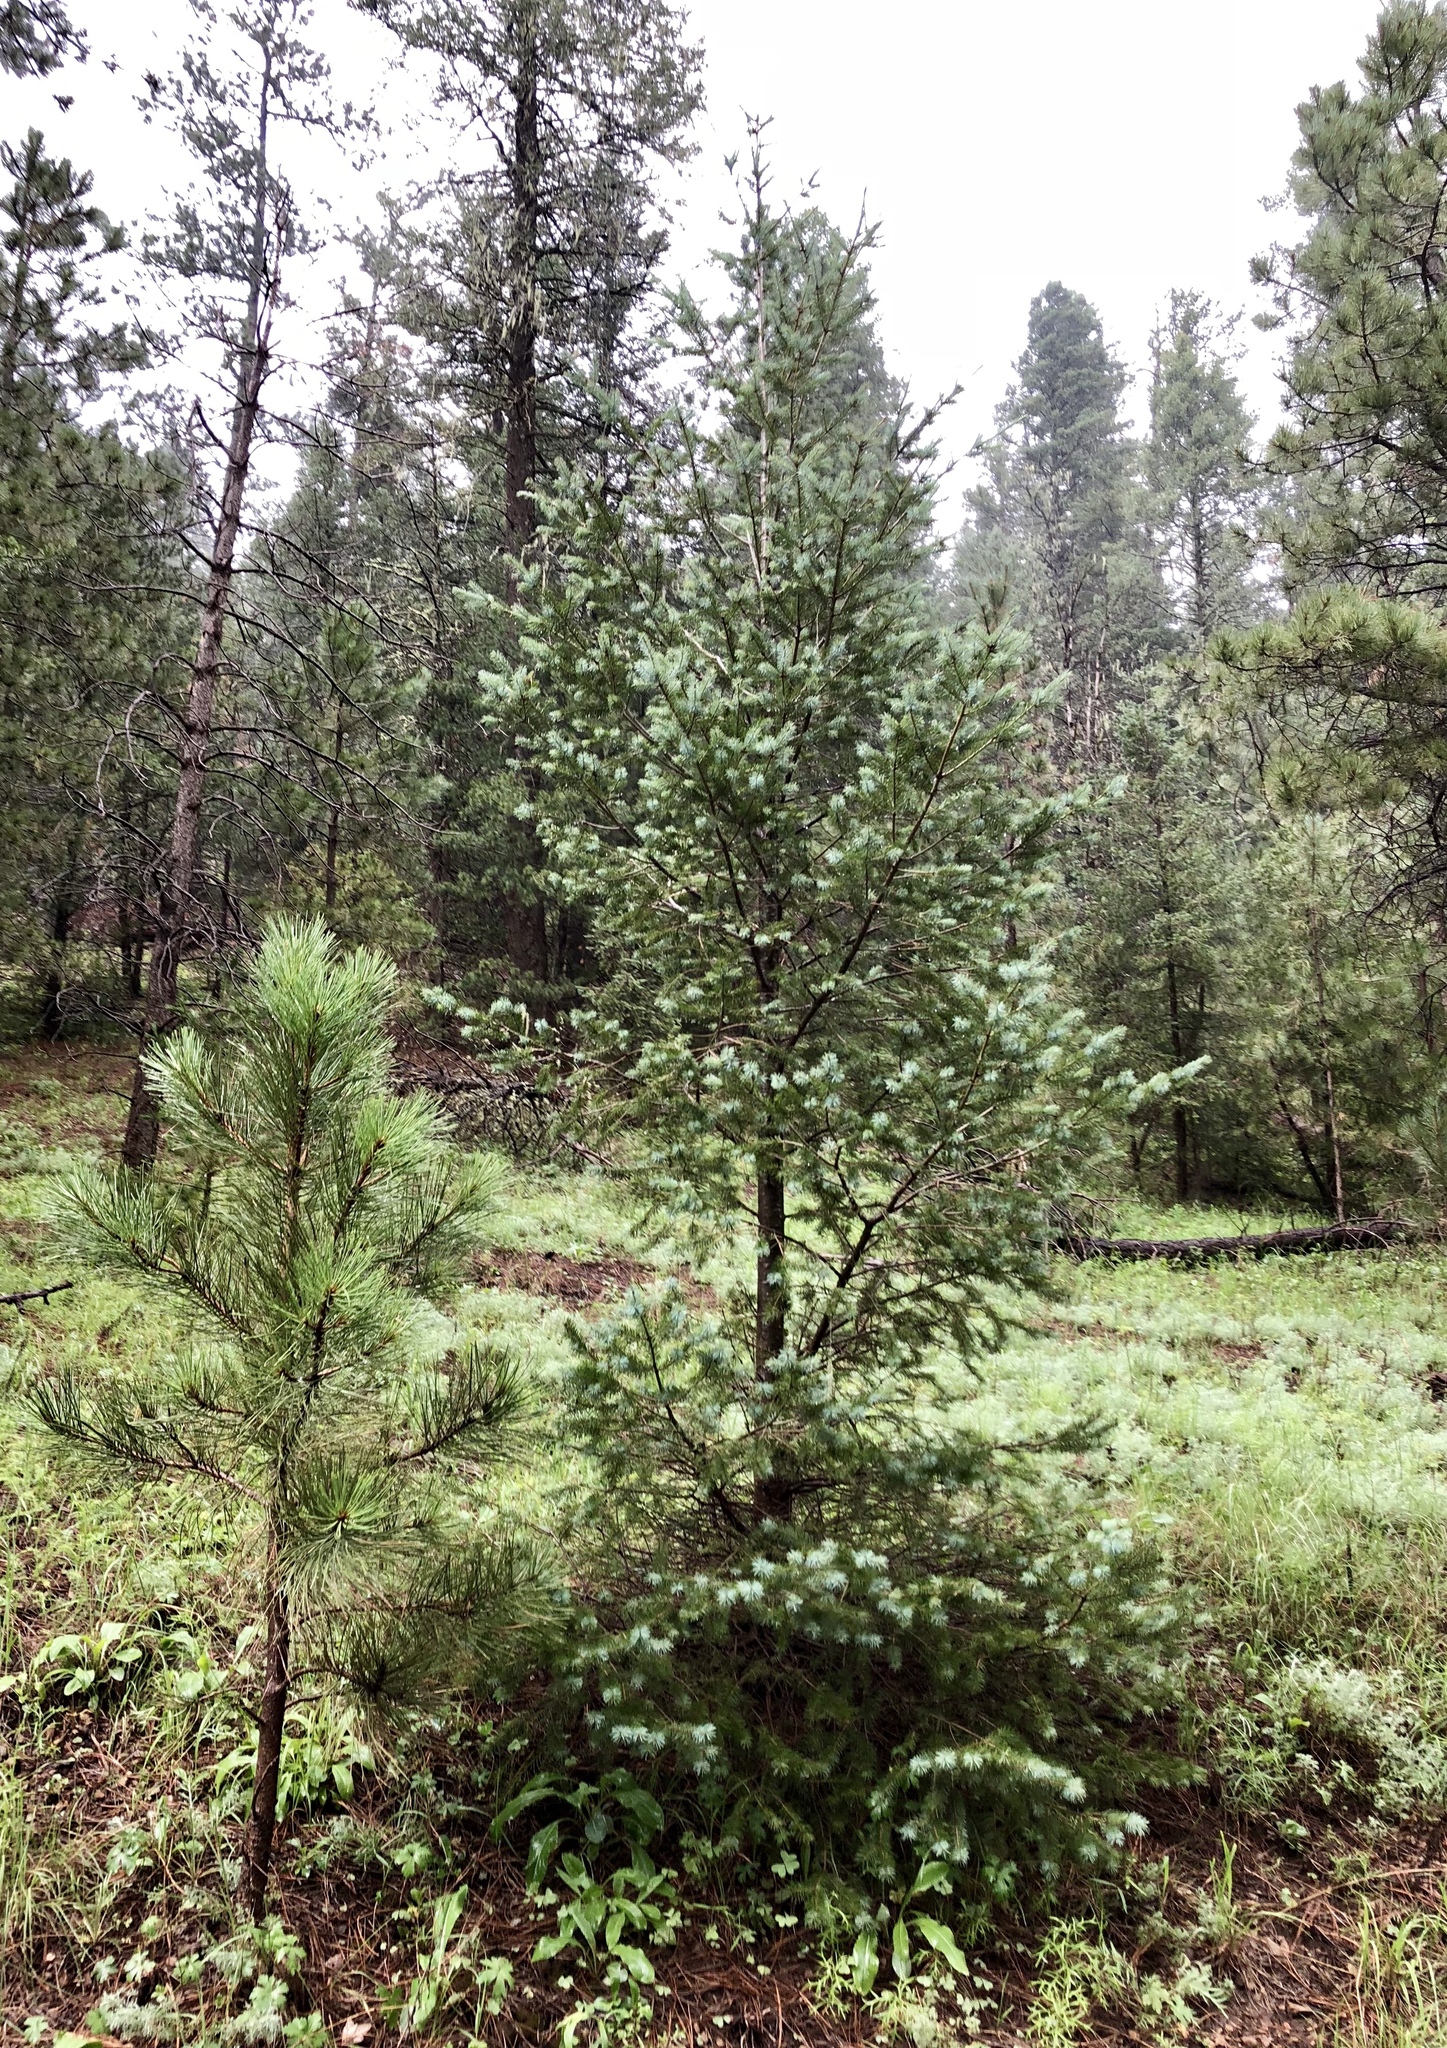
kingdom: Plantae
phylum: Tracheophyta
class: Pinopsida
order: Pinales
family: Pinaceae
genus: Pseudotsuga
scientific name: Pseudotsuga menziesii
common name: Douglas fir
